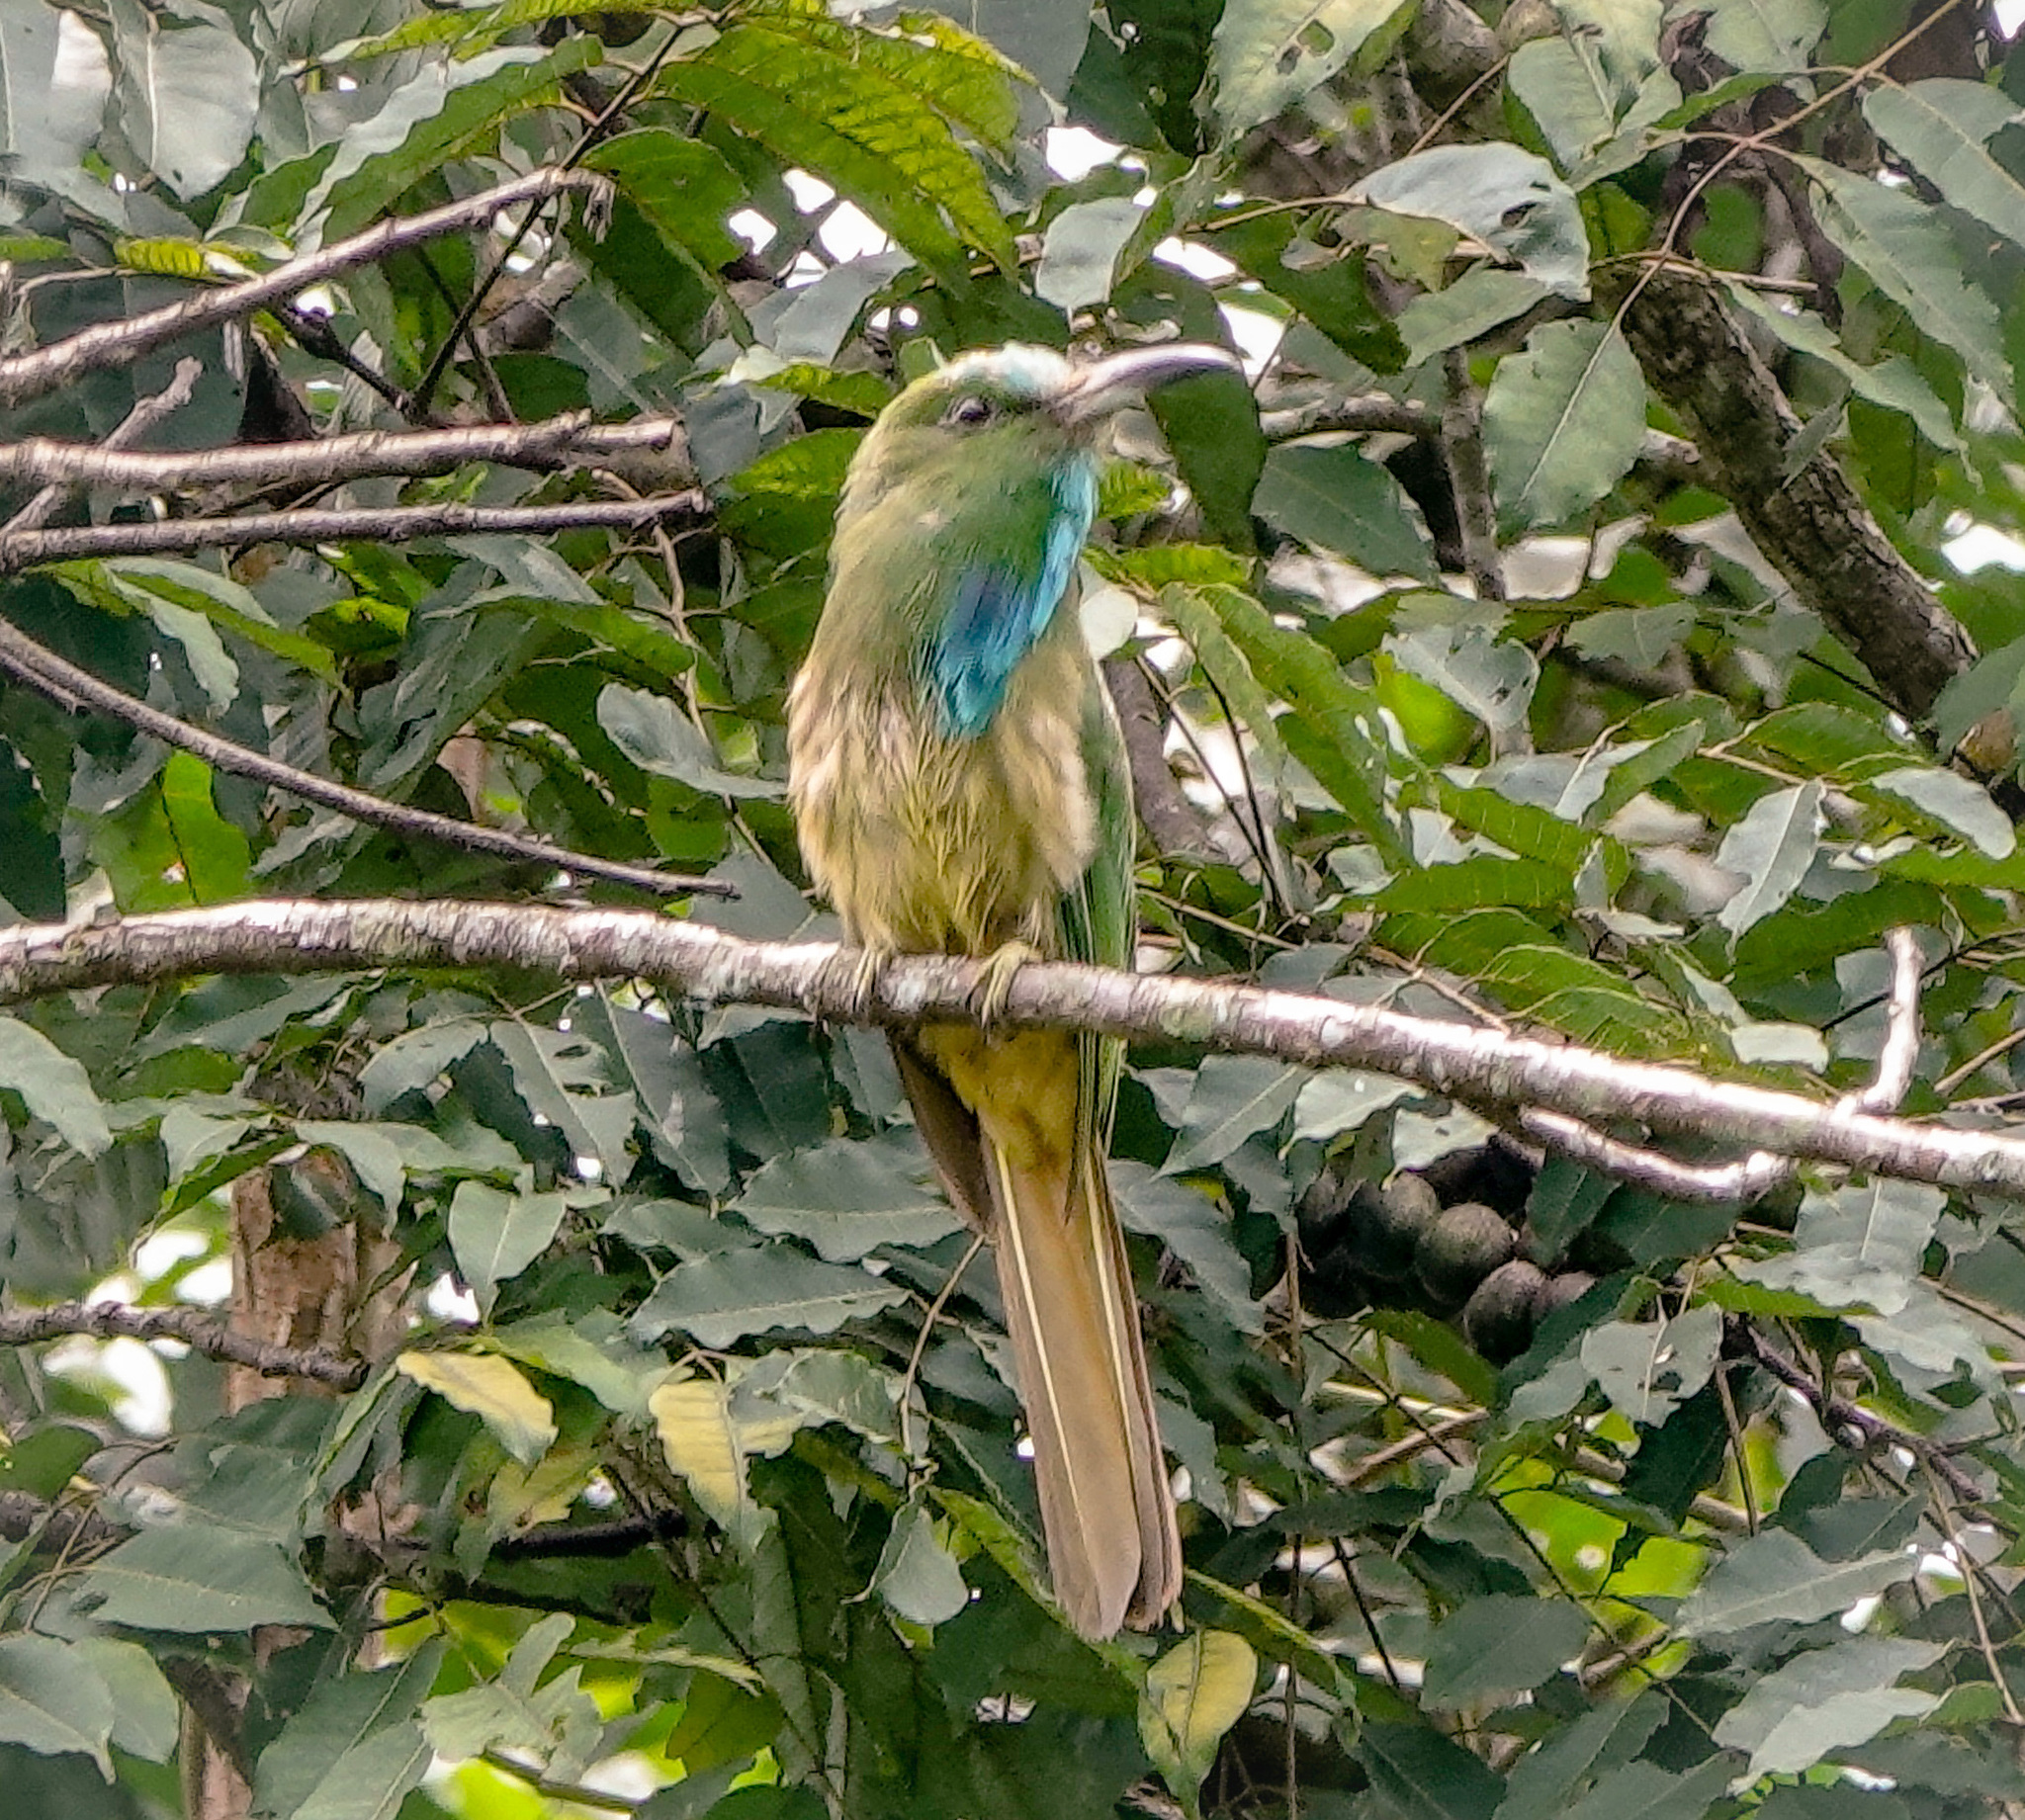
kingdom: Animalia
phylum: Chordata
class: Aves
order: Coraciiformes
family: Meropidae
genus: Nyctyornis
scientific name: Nyctyornis athertoni
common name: Blue-bearded bee-eater
